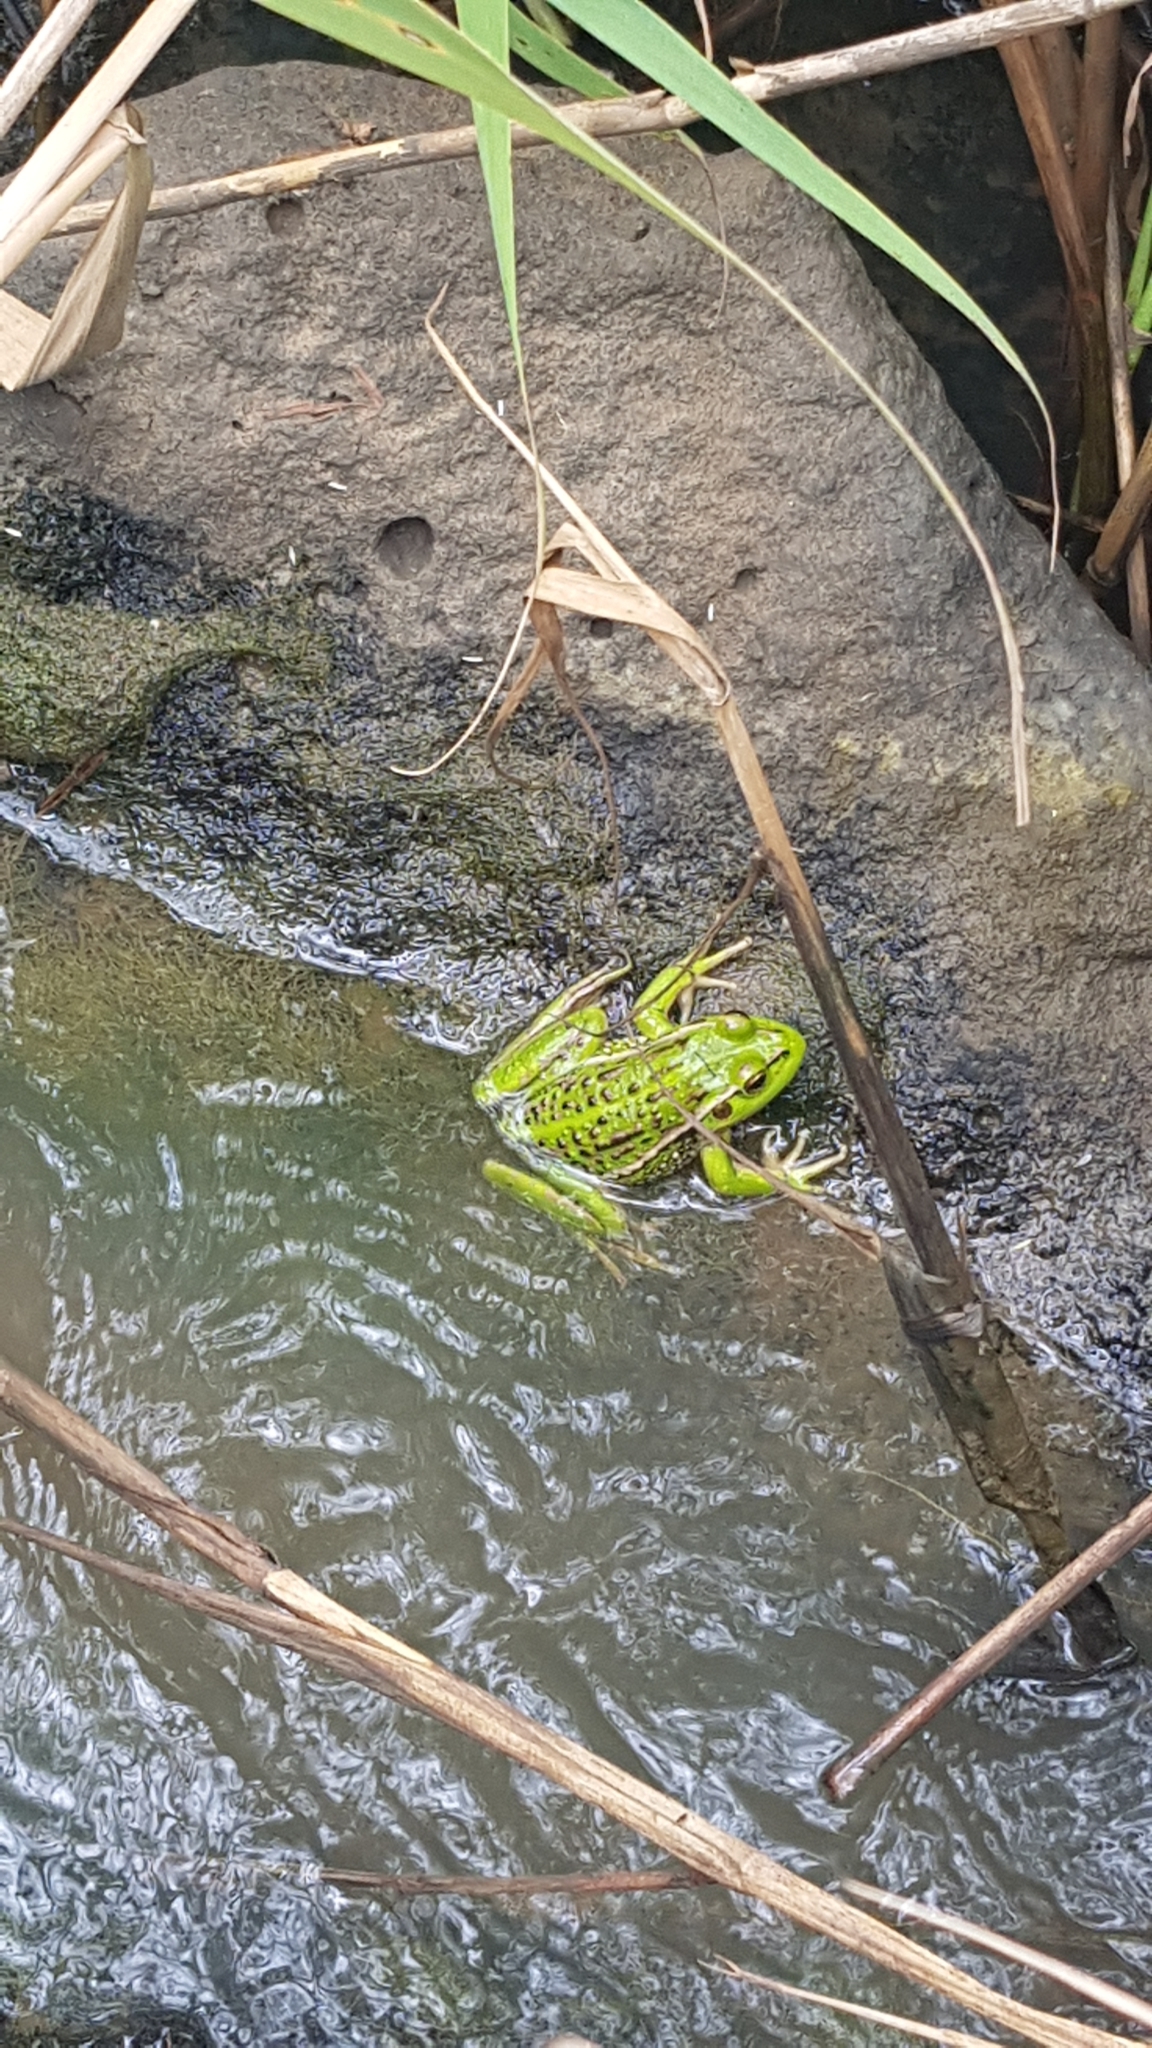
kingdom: Animalia
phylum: Chordata
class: Amphibia
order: Anura
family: Pelodryadidae
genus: Ranoidea
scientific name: Ranoidea raniformis
